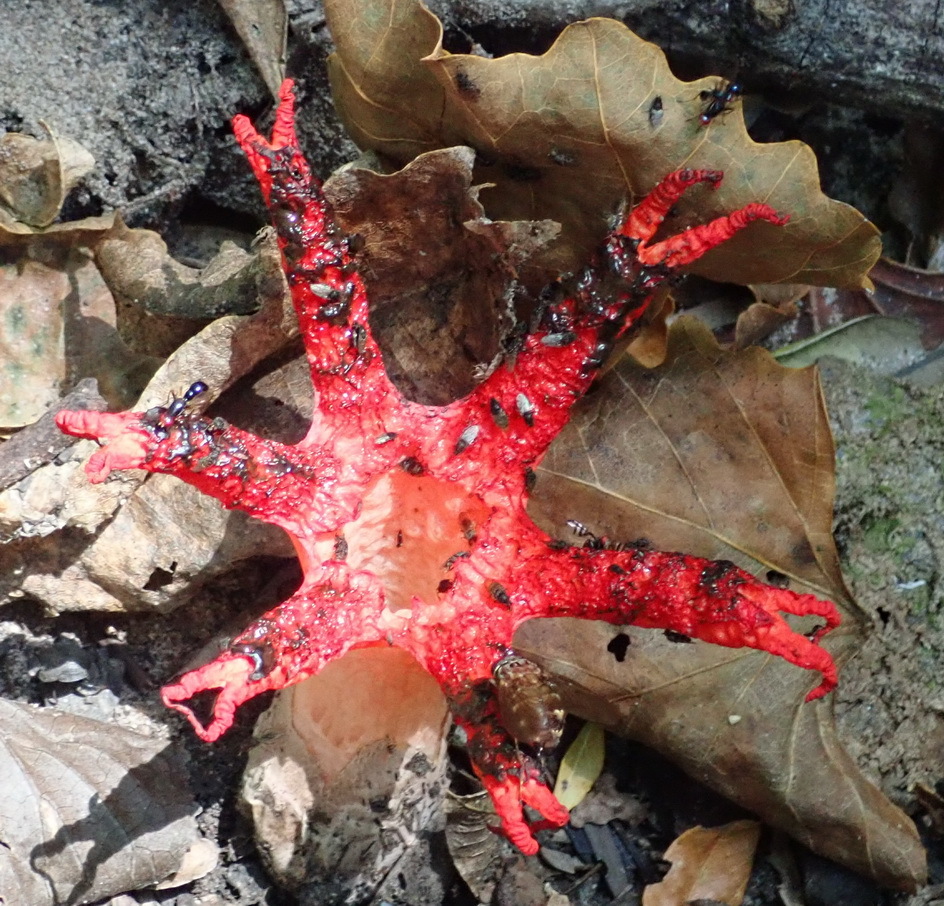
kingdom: Fungi
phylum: Basidiomycota
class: Agaricomycetes
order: Phallales
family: Phallaceae
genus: Clathrus
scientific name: Clathrus archeri
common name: Devil's fingers
